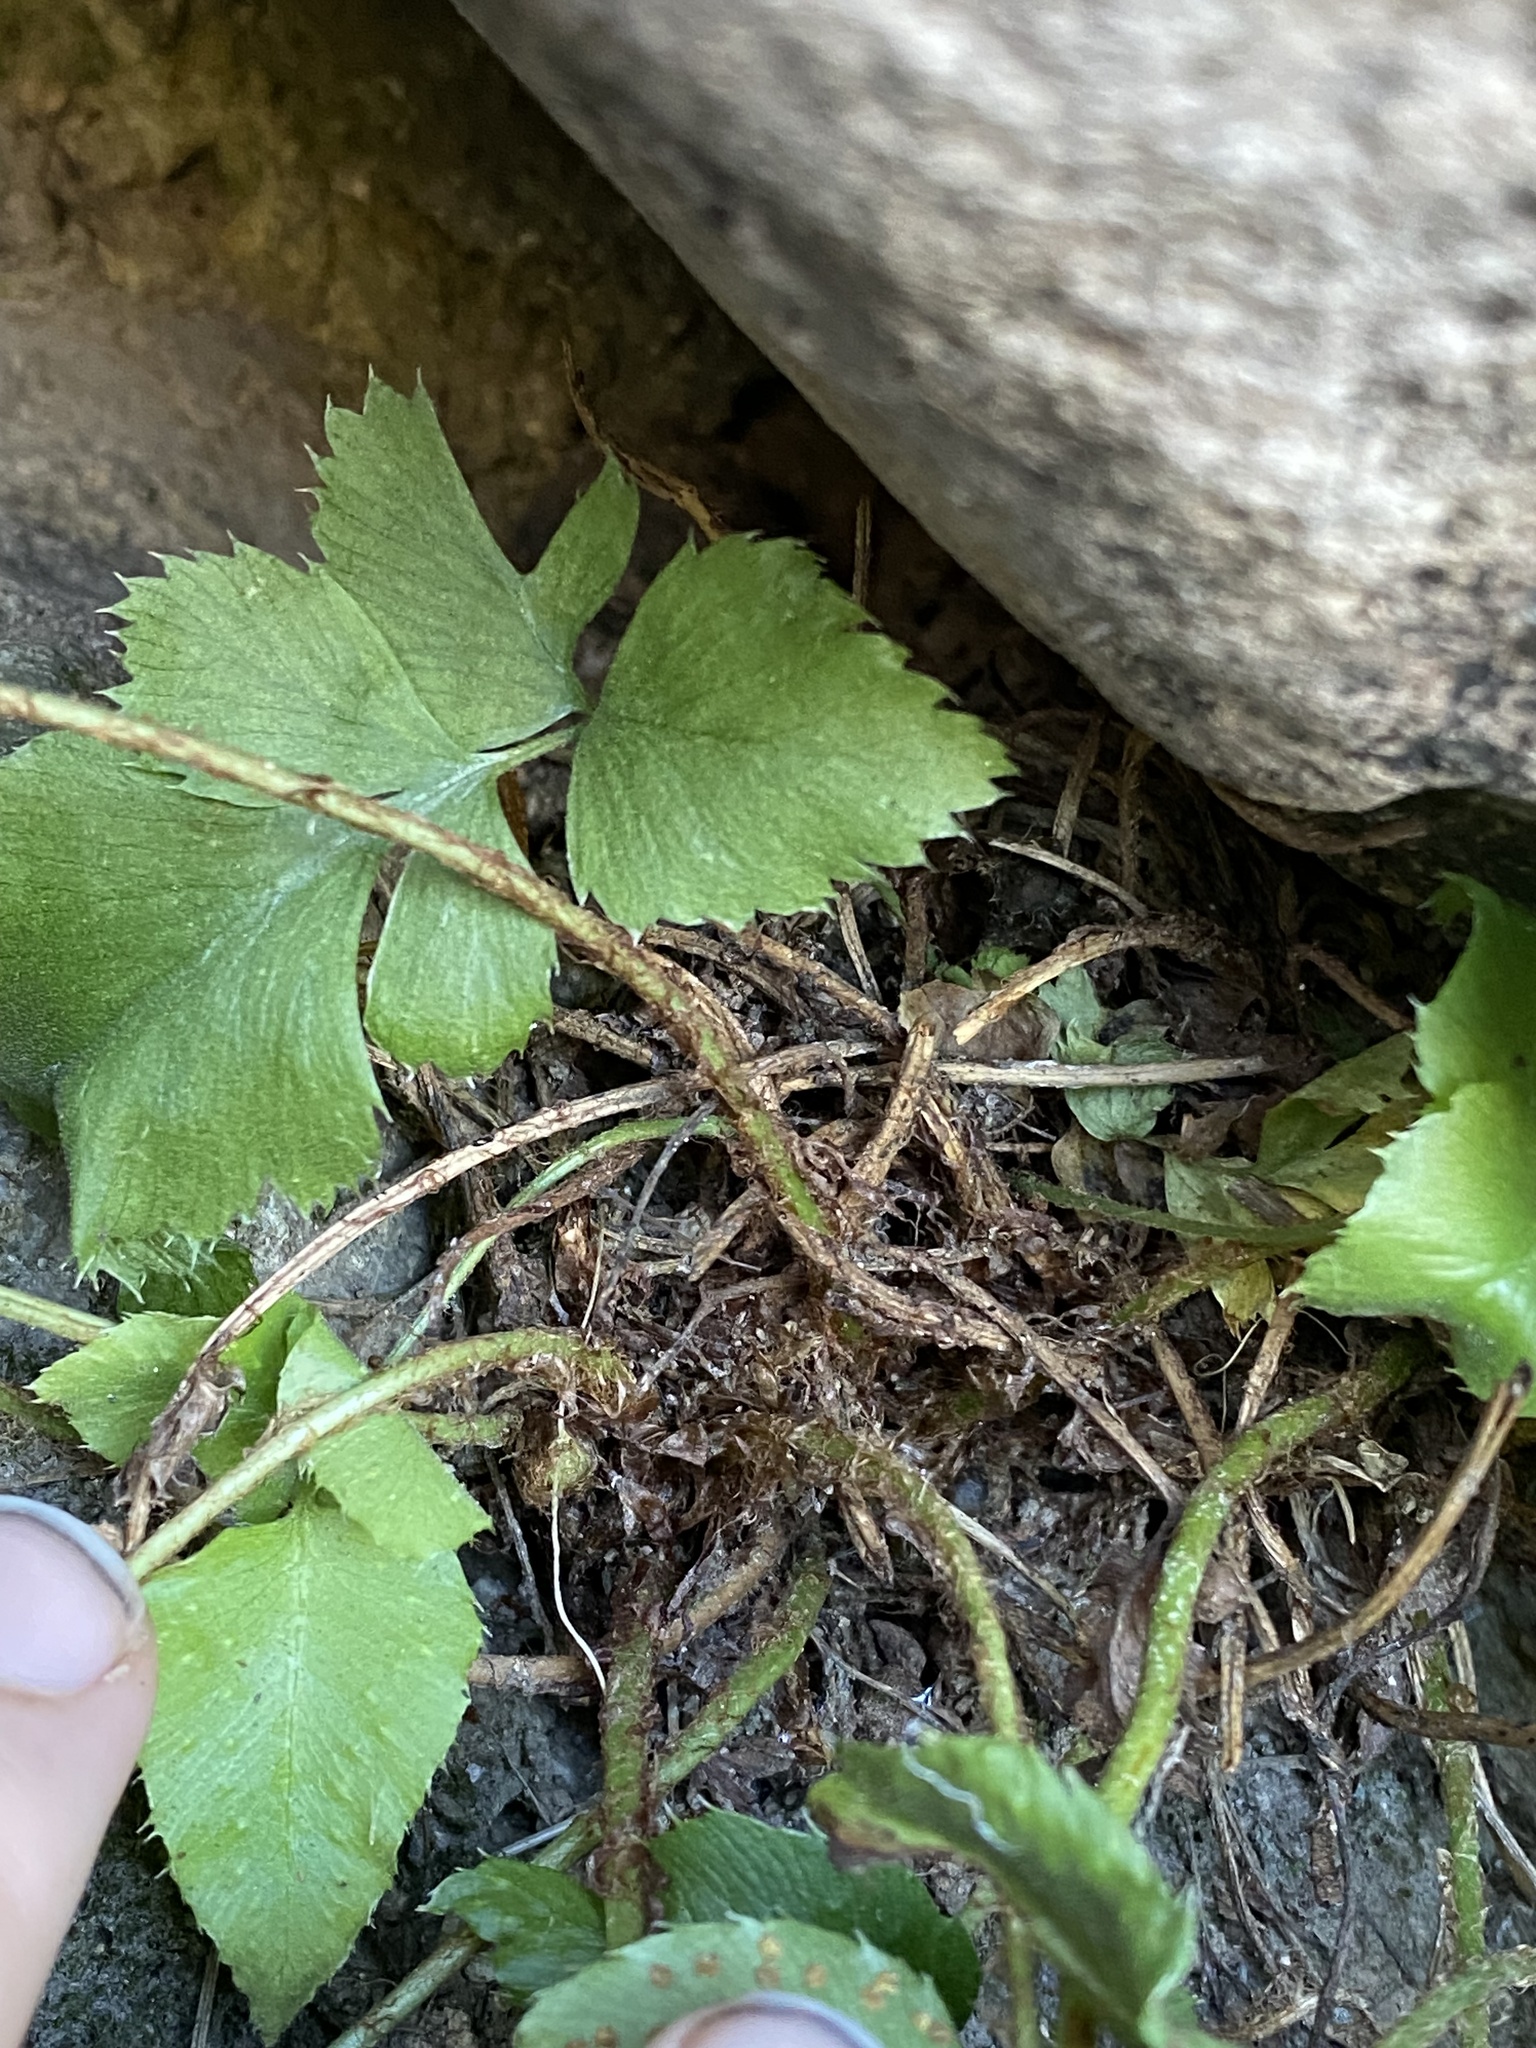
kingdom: Plantae
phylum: Tracheophyta
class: Polypodiopsida
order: Polypodiales
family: Dryopteridaceae
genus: Phanerophlebia
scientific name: Phanerophlebia auriculata
